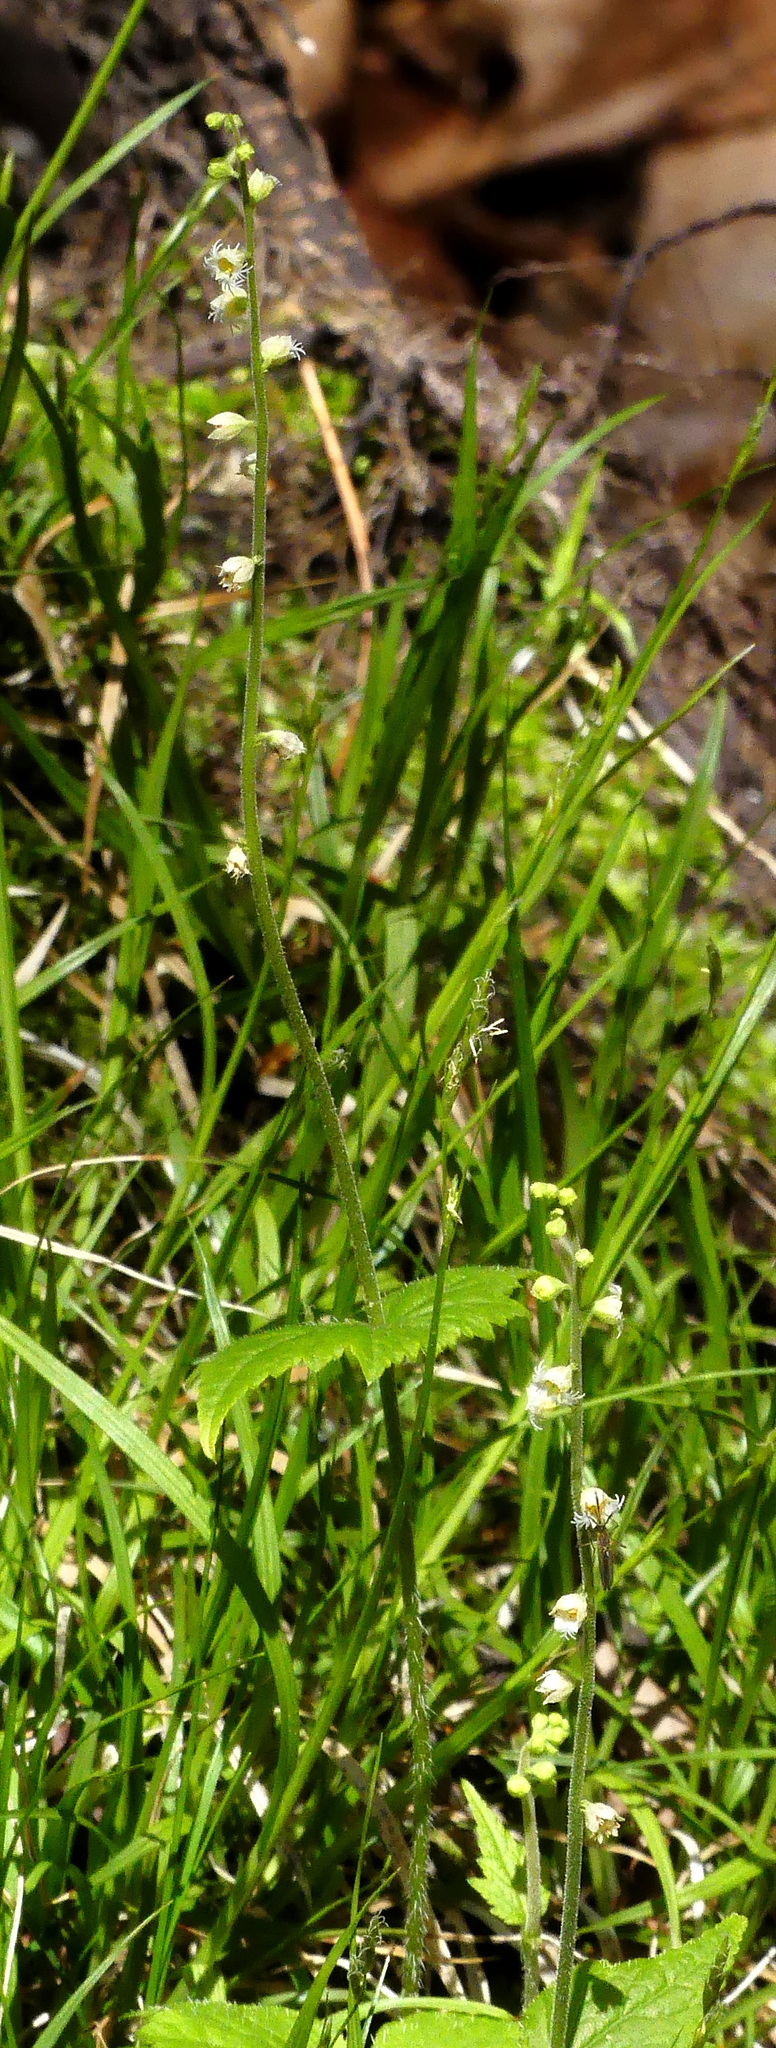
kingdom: Plantae
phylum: Tracheophyta
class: Magnoliopsida
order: Saxifragales
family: Saxifragaceae
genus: Mitella
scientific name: Mitella diphylla
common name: Coolwort
